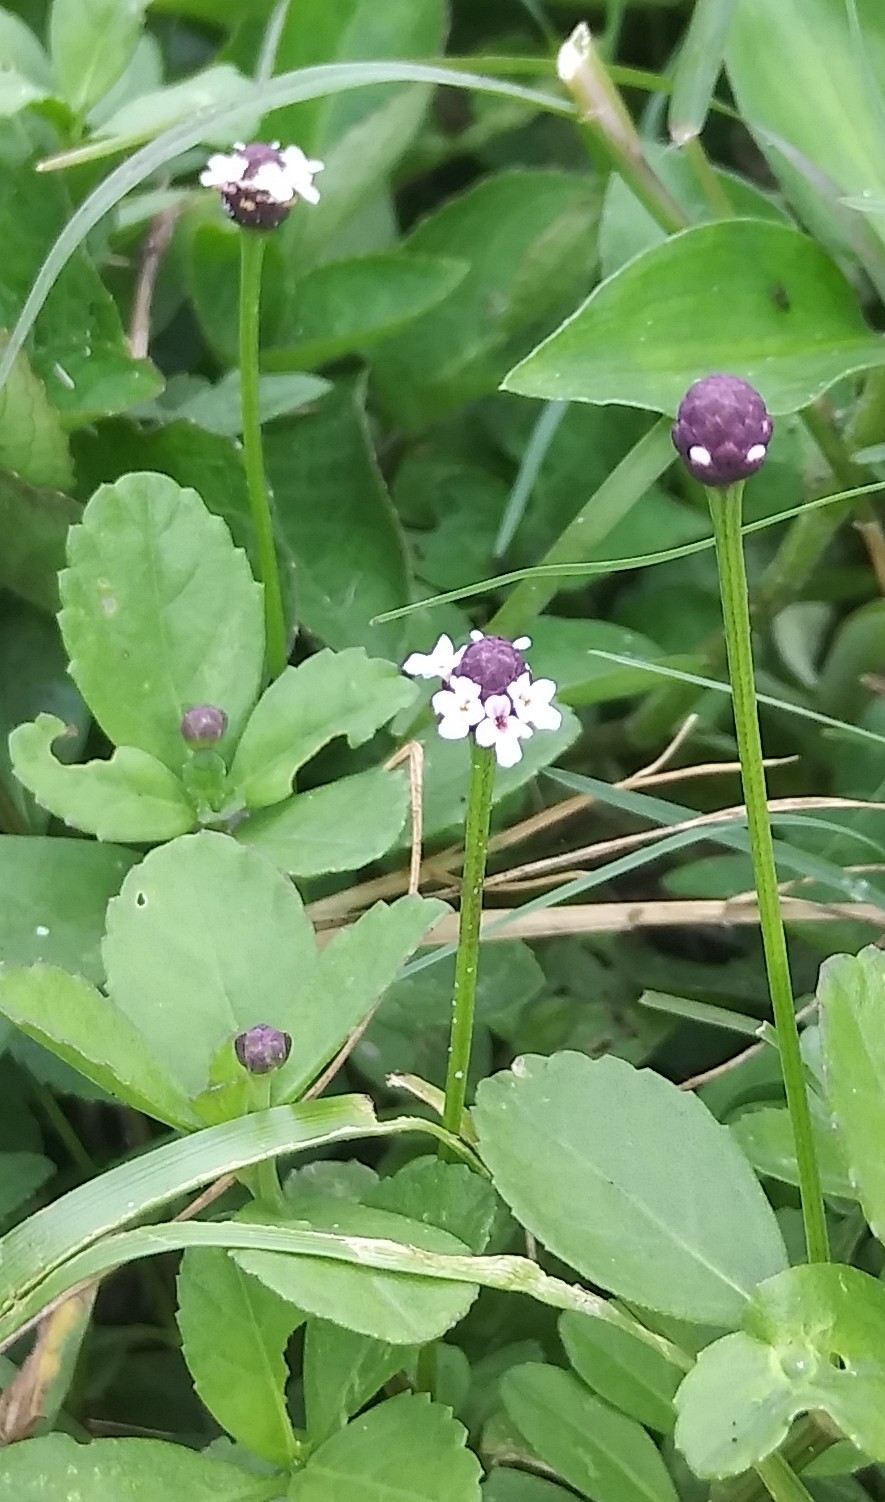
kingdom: Plantae
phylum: Tracheophyta
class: Magnoliopsida
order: Lamiales
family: Verbenaceae
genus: Phyla
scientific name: Phyla nodiflora
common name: Frogfruit
